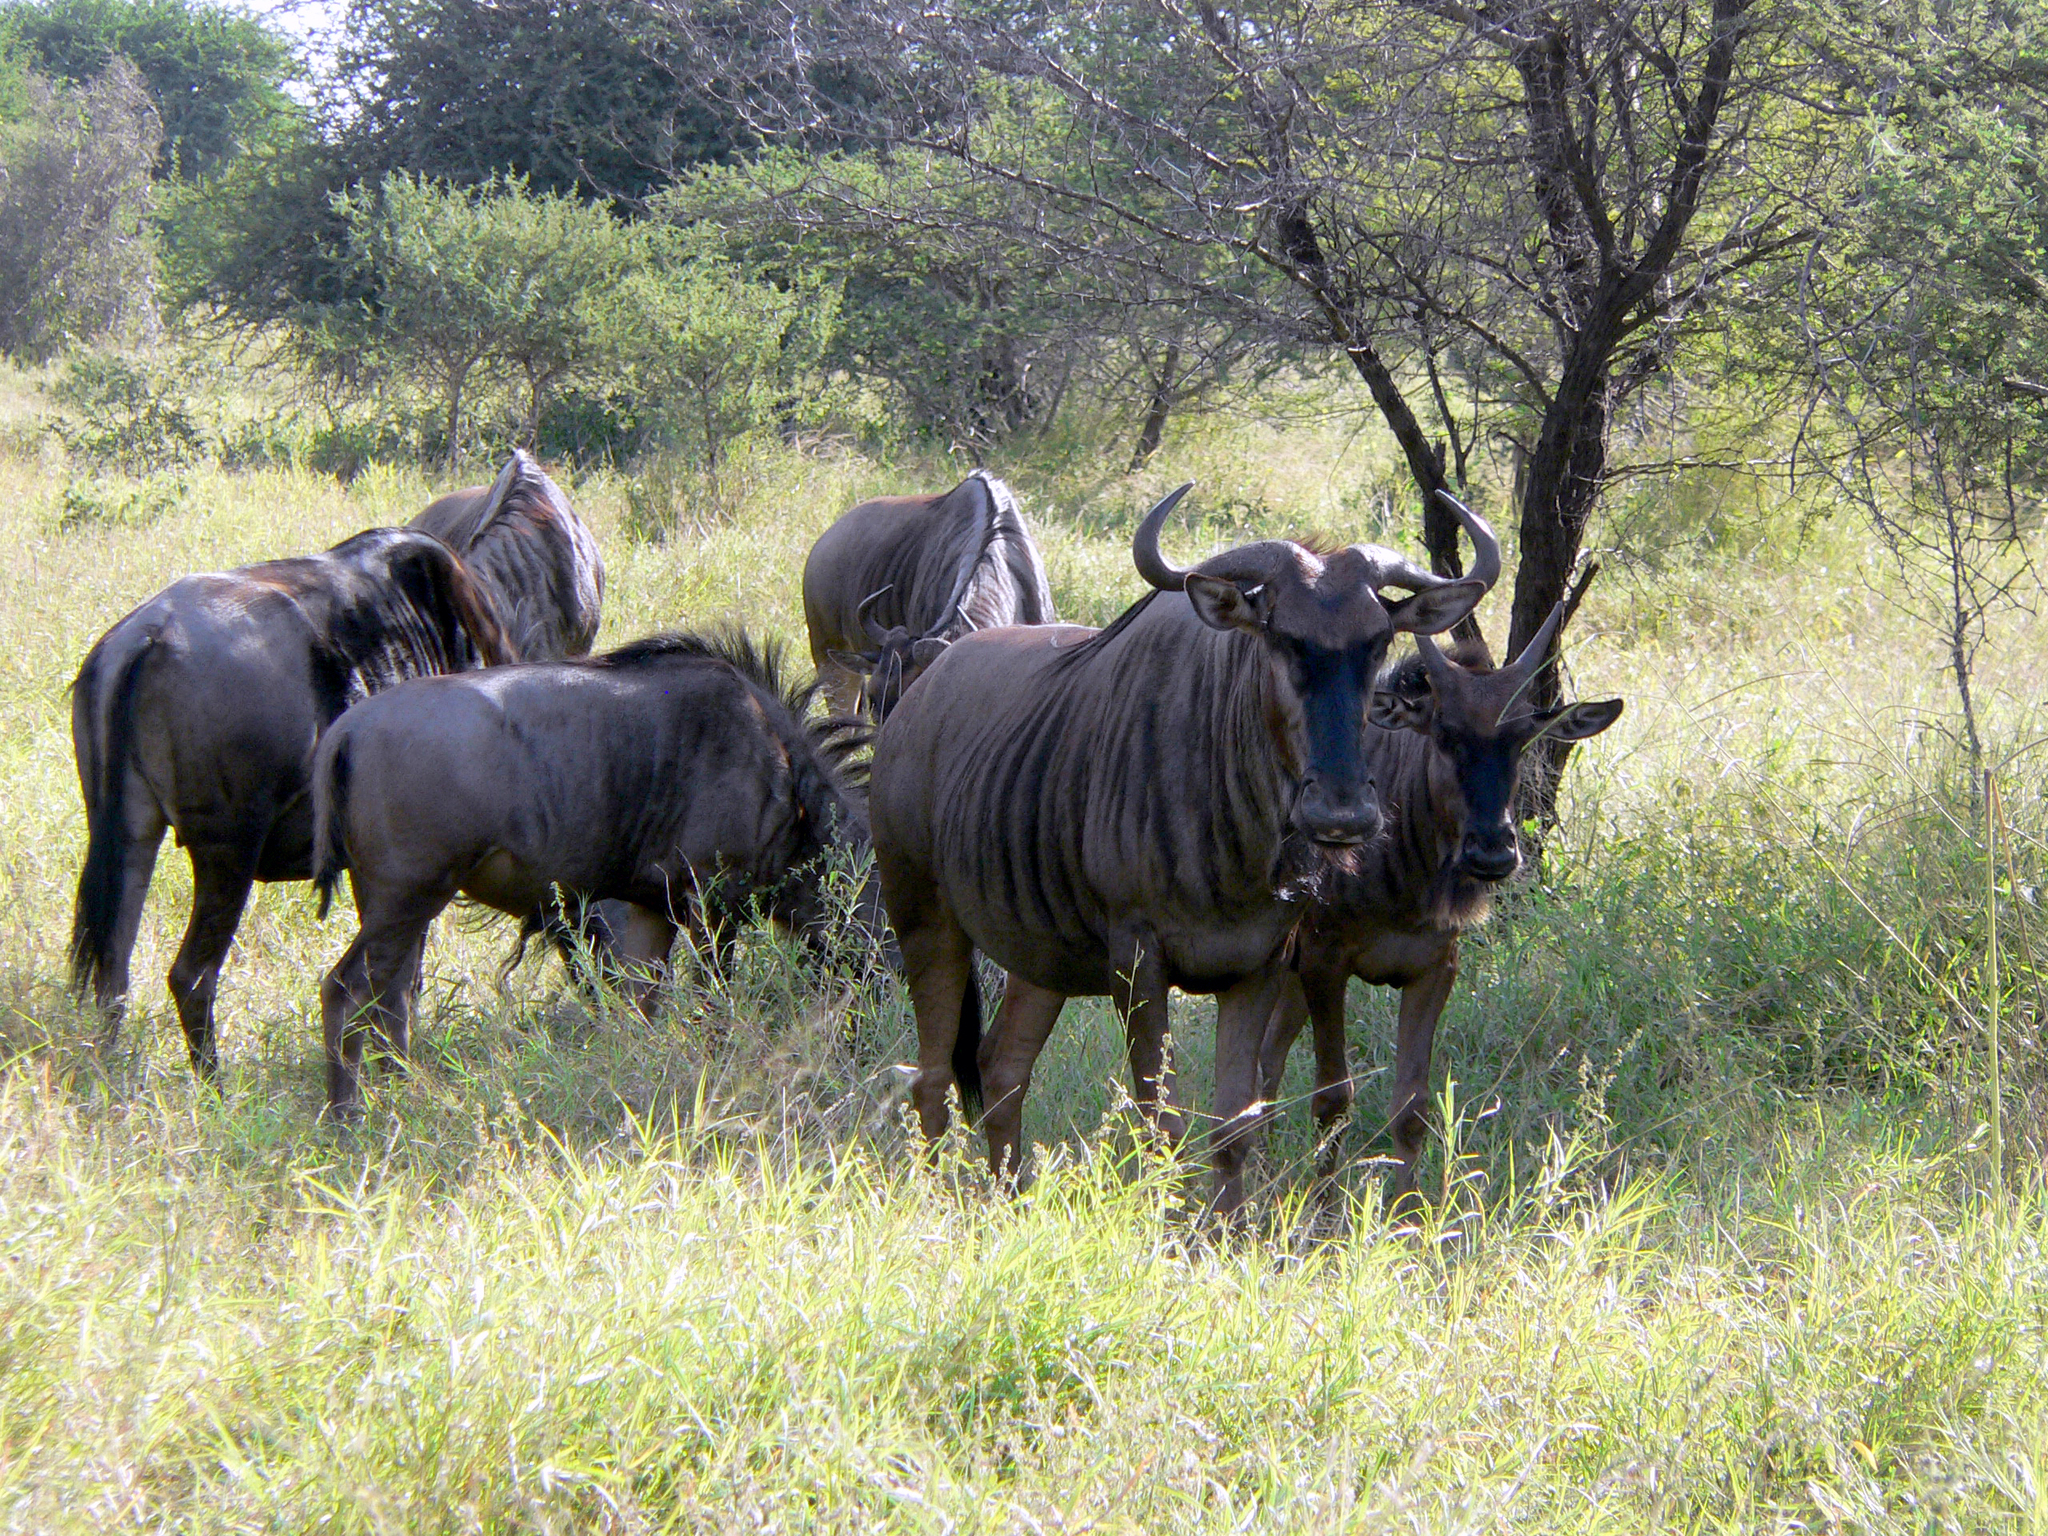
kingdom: Animalia
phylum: Chordata
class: Mammalia
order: Artiodactyla
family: Bovidae
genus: Connochaetes
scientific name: Connochaetes taurinus
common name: Blue wildebeest
